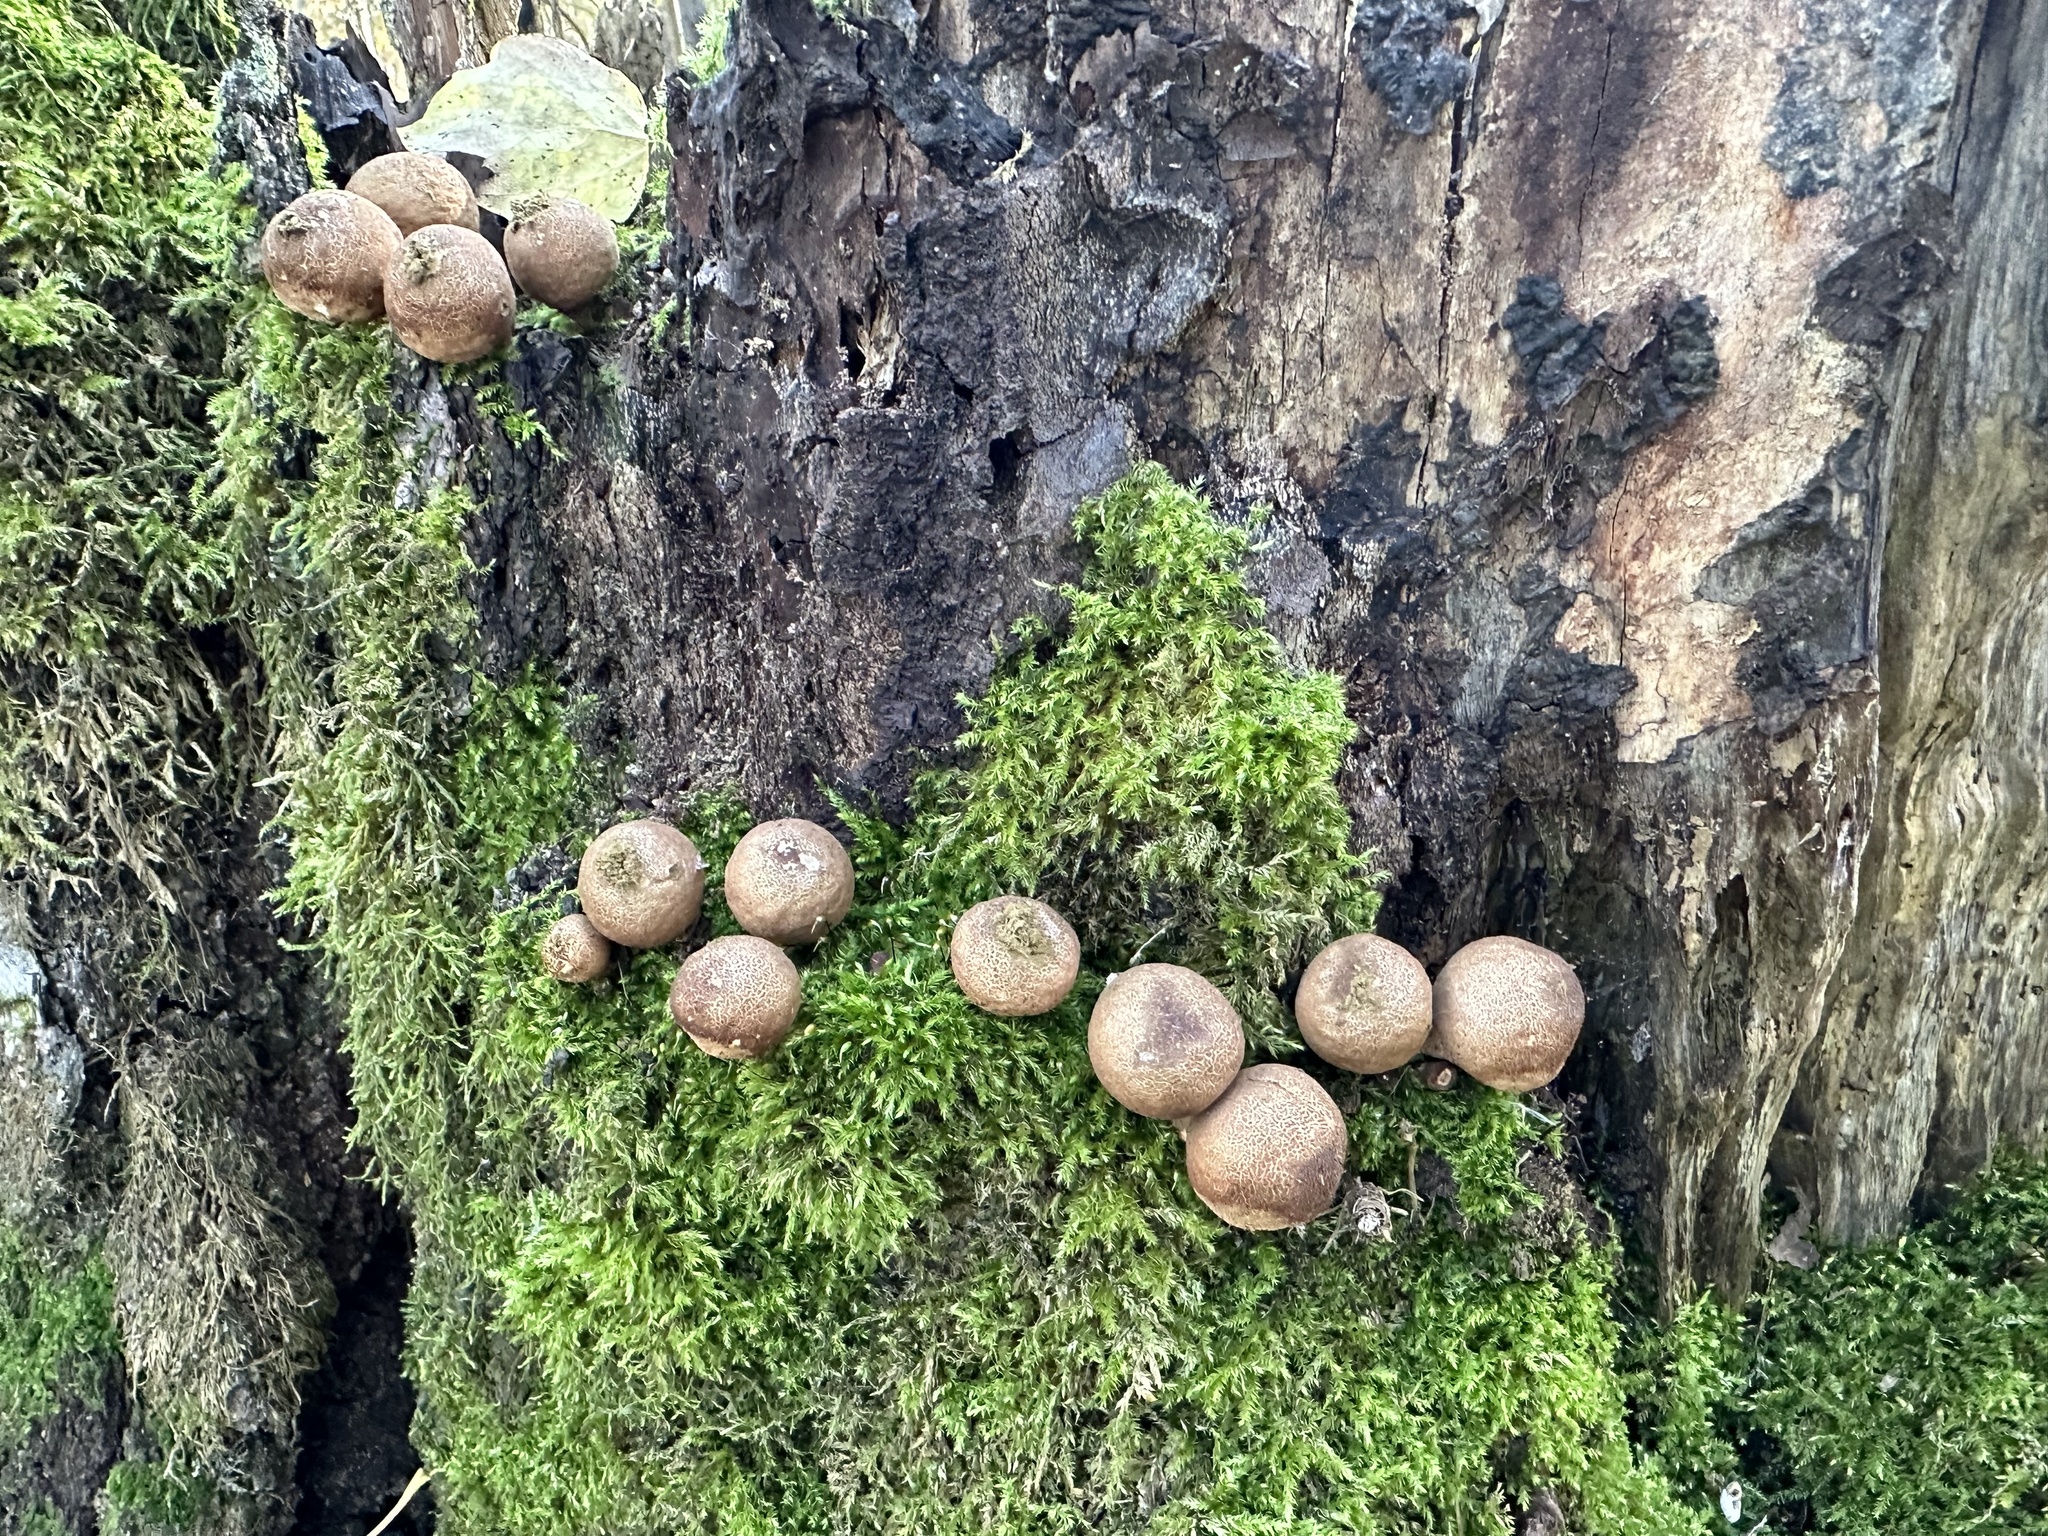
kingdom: Fungi
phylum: Basidiomycota
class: Agaricomycetes
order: Agaricales
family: Lycoperdaceae
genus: Apioperdon
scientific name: Apioperdon pyriforme
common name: Pear-shaped puffball
